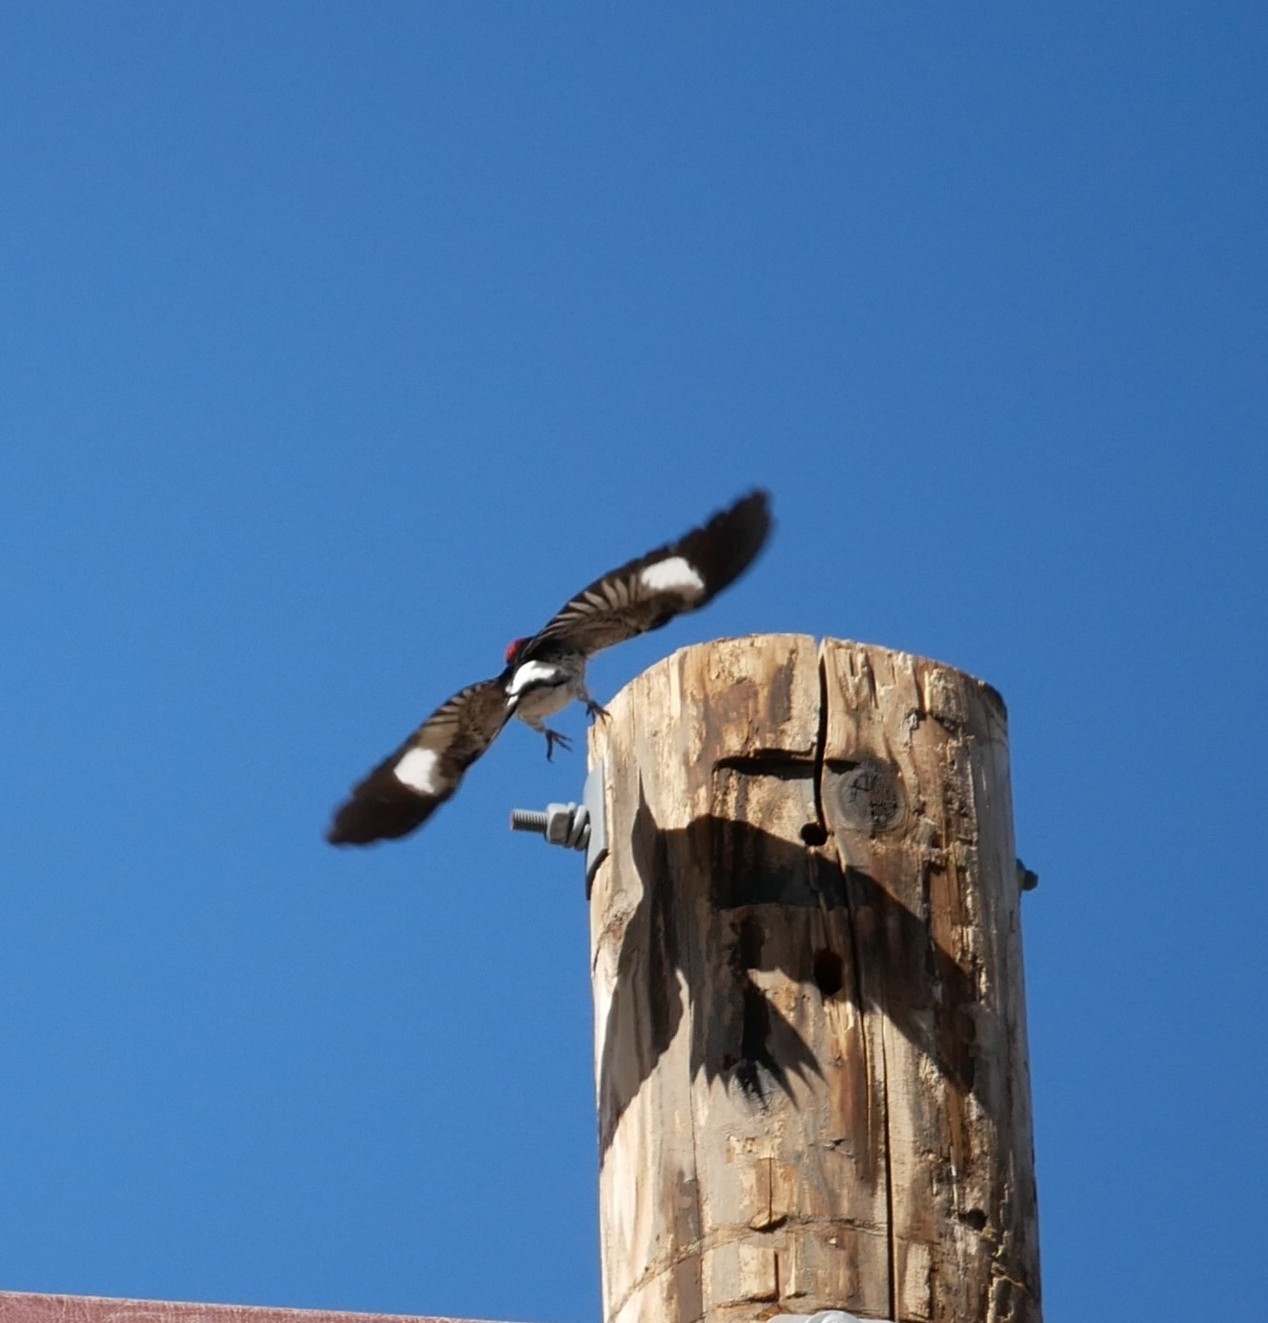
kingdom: Animalia
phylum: Chordata
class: Aves
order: Piciformes
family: Picidae
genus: Melanerpes
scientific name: Melanerpes formicivorus
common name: Acorn woodpecker
